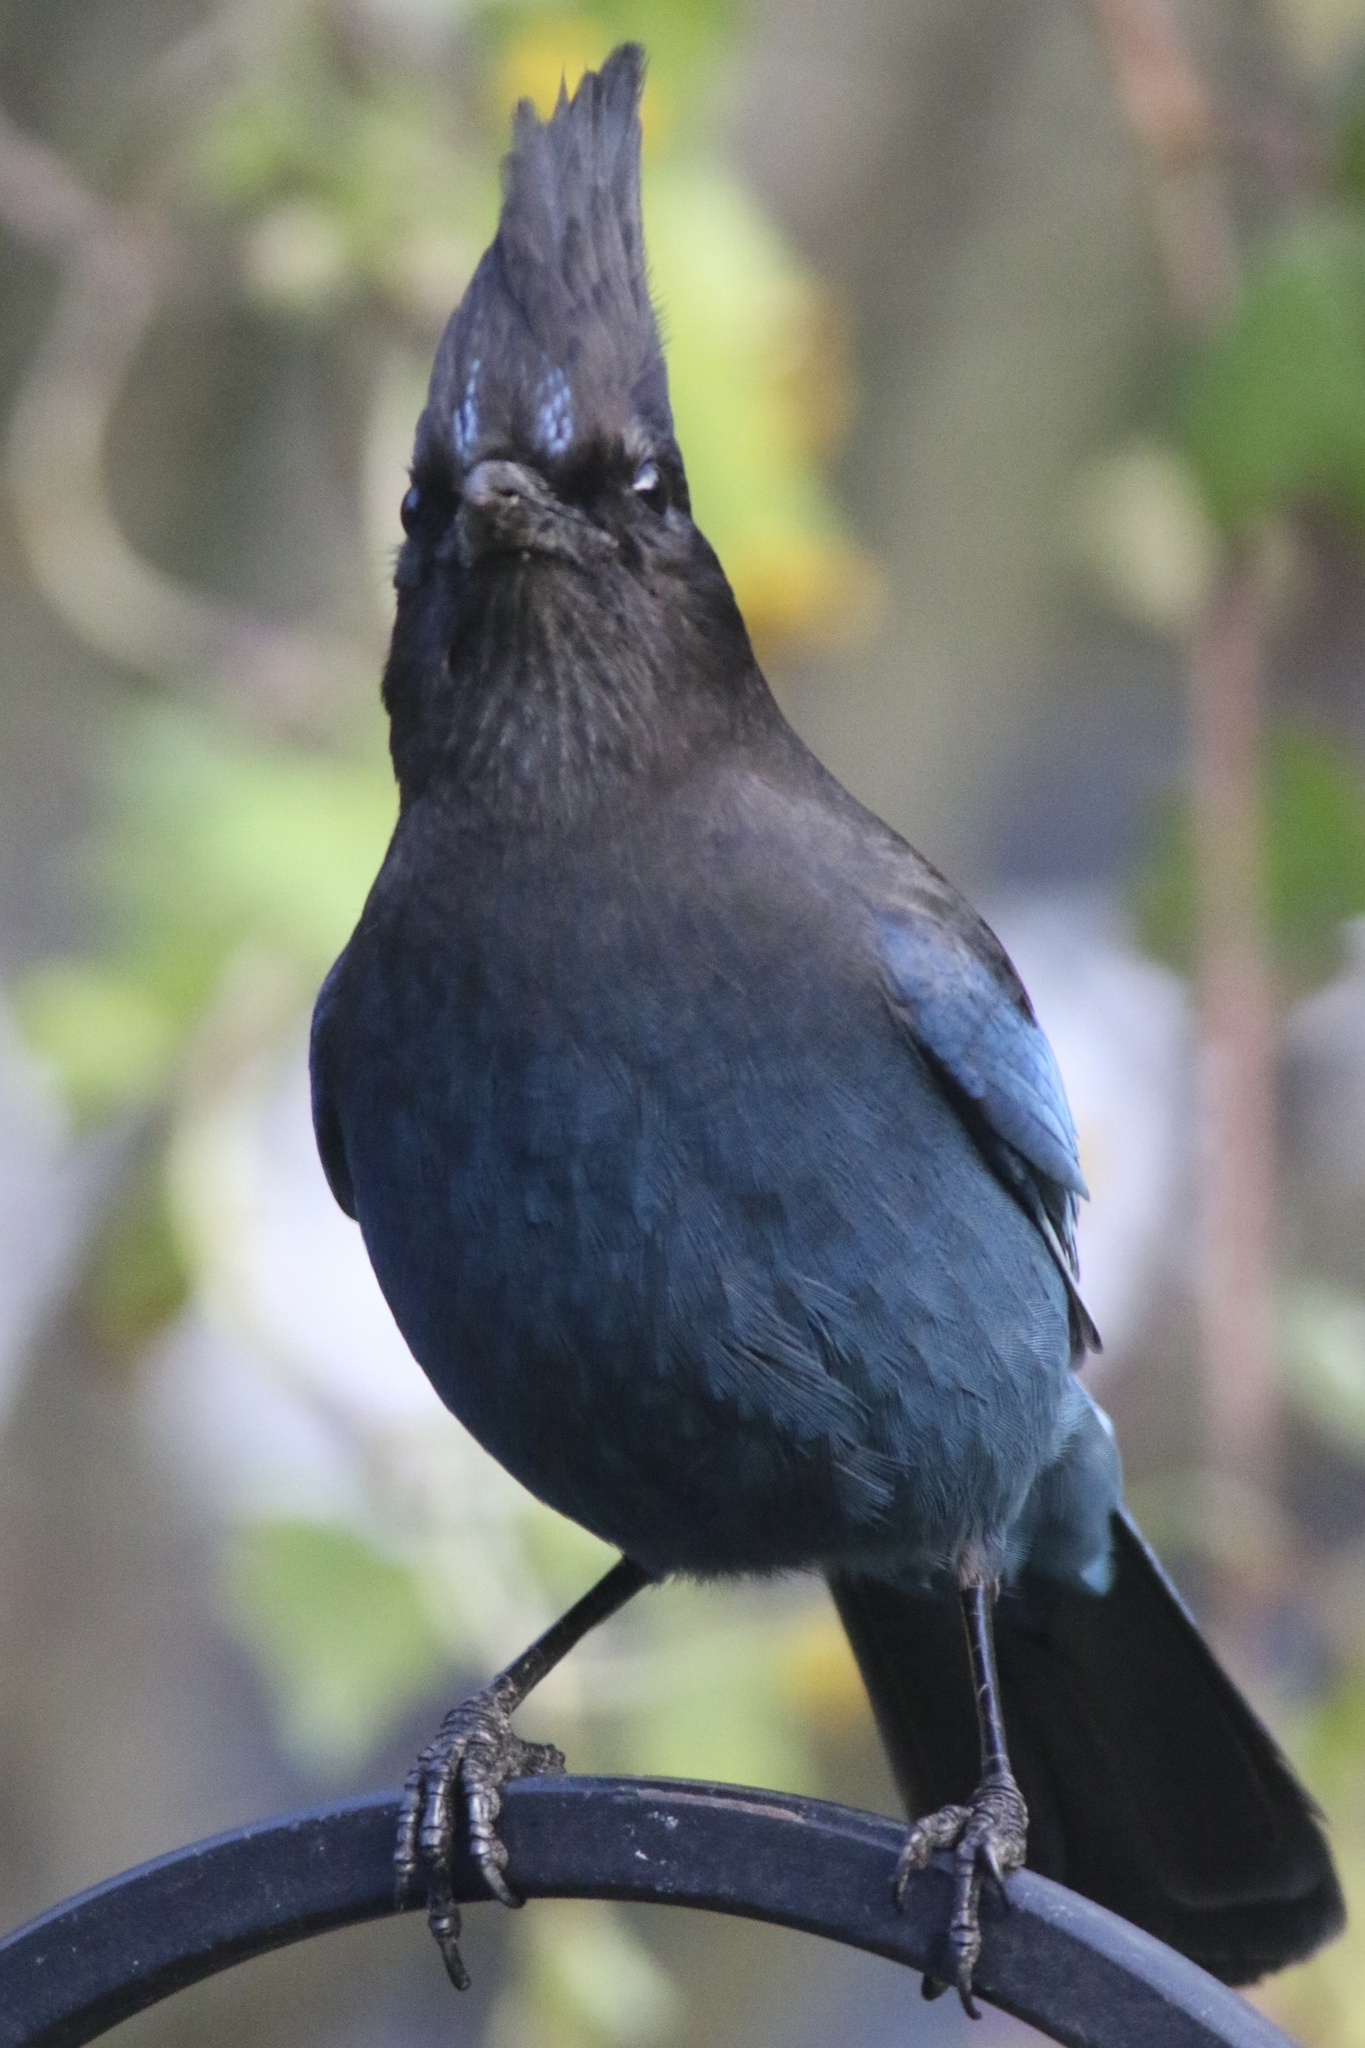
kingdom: Animalia
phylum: Chordata
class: Aves
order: Passeriformes
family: Corvidae
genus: Cyanocitta
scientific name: Cyanocitta stelleri
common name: Steller's jay
